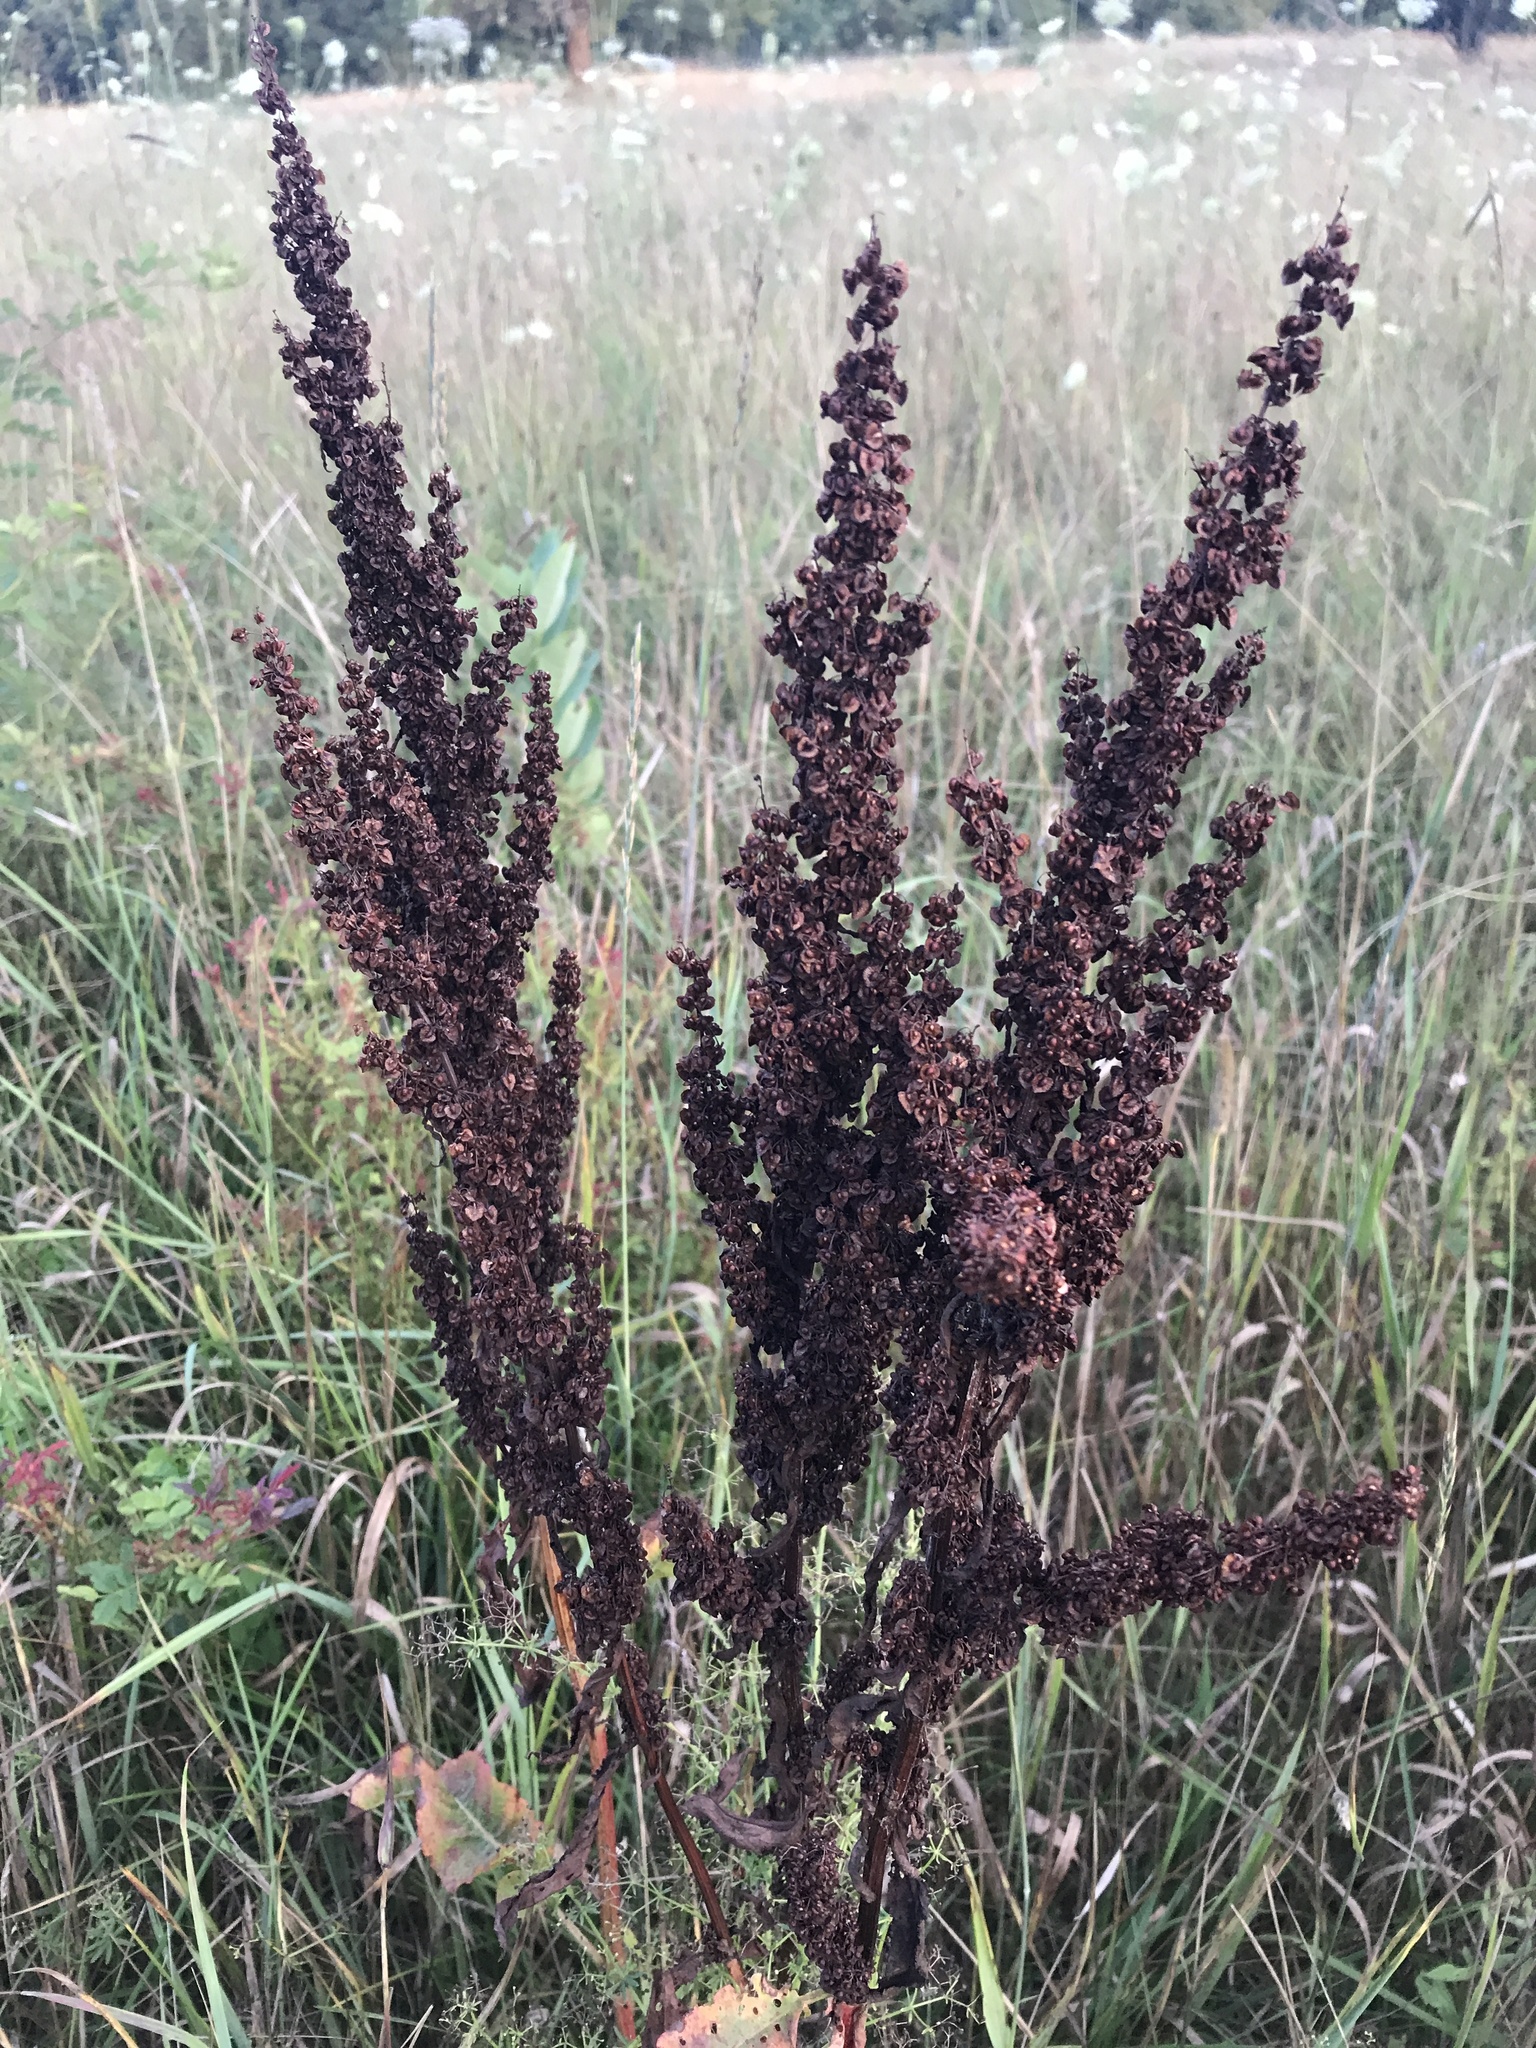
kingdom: Plantae
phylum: Tracheophyta
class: Magnoliopsida
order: Caryophyllales
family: Polygonaceae
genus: Rumex
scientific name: Rumex crispus
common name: Curled dock
